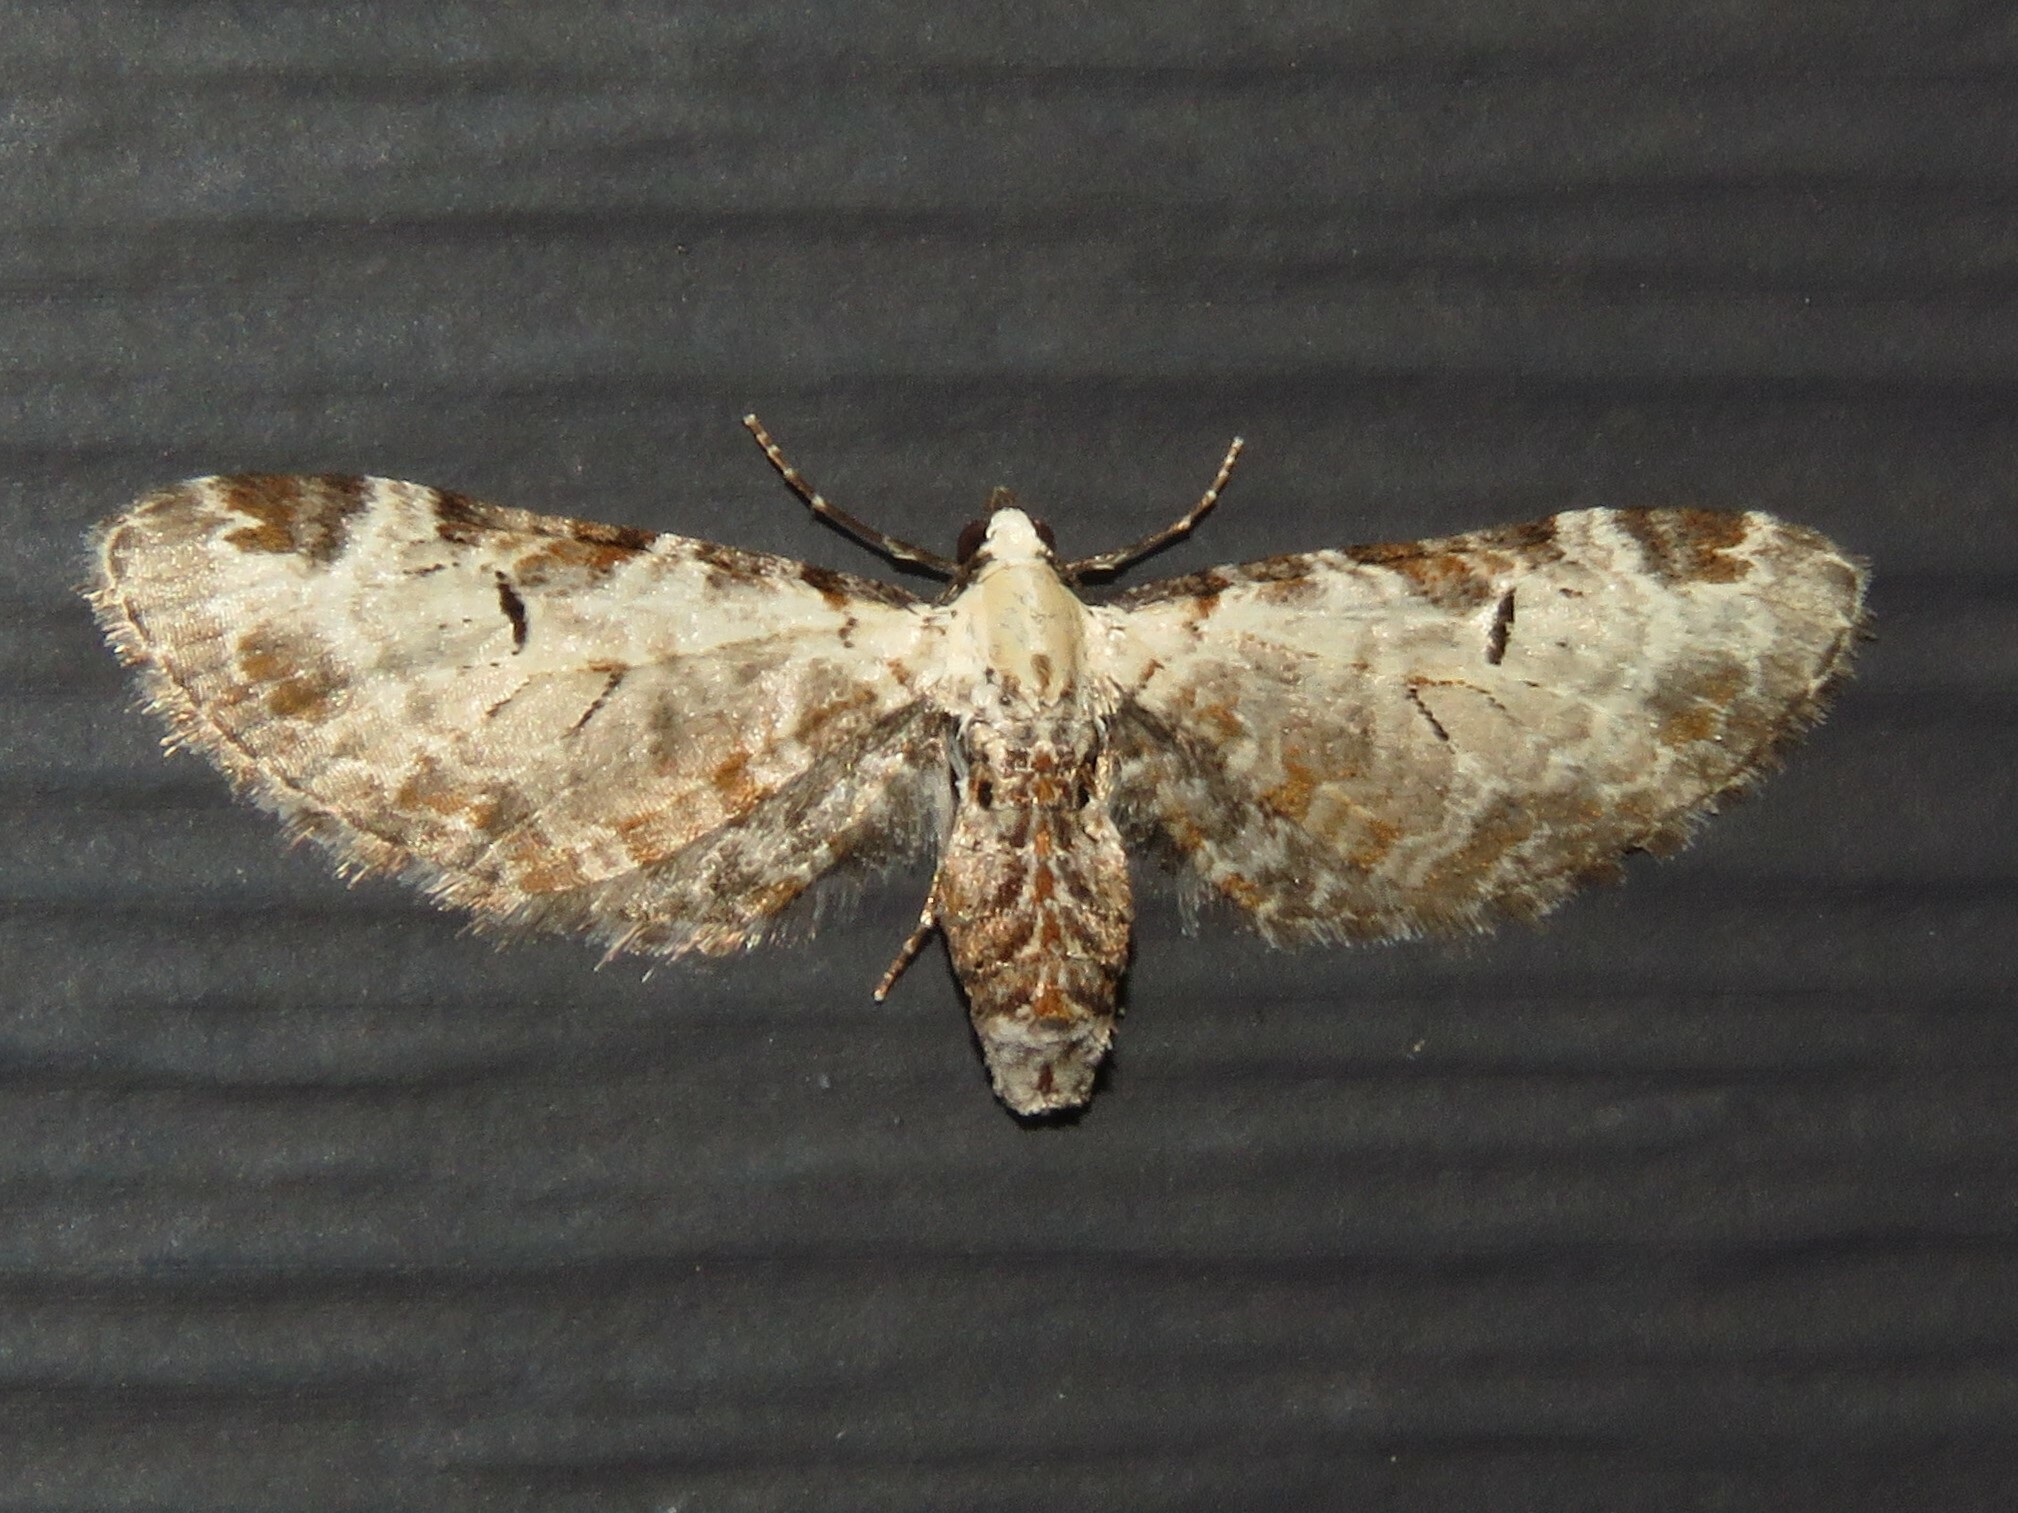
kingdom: Animalia
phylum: Arthropoda
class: Insecta
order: Lepidoptera
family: Geometridae
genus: Eupithecia
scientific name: Eupithecia ravocostaliata
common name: Great varigated pug
